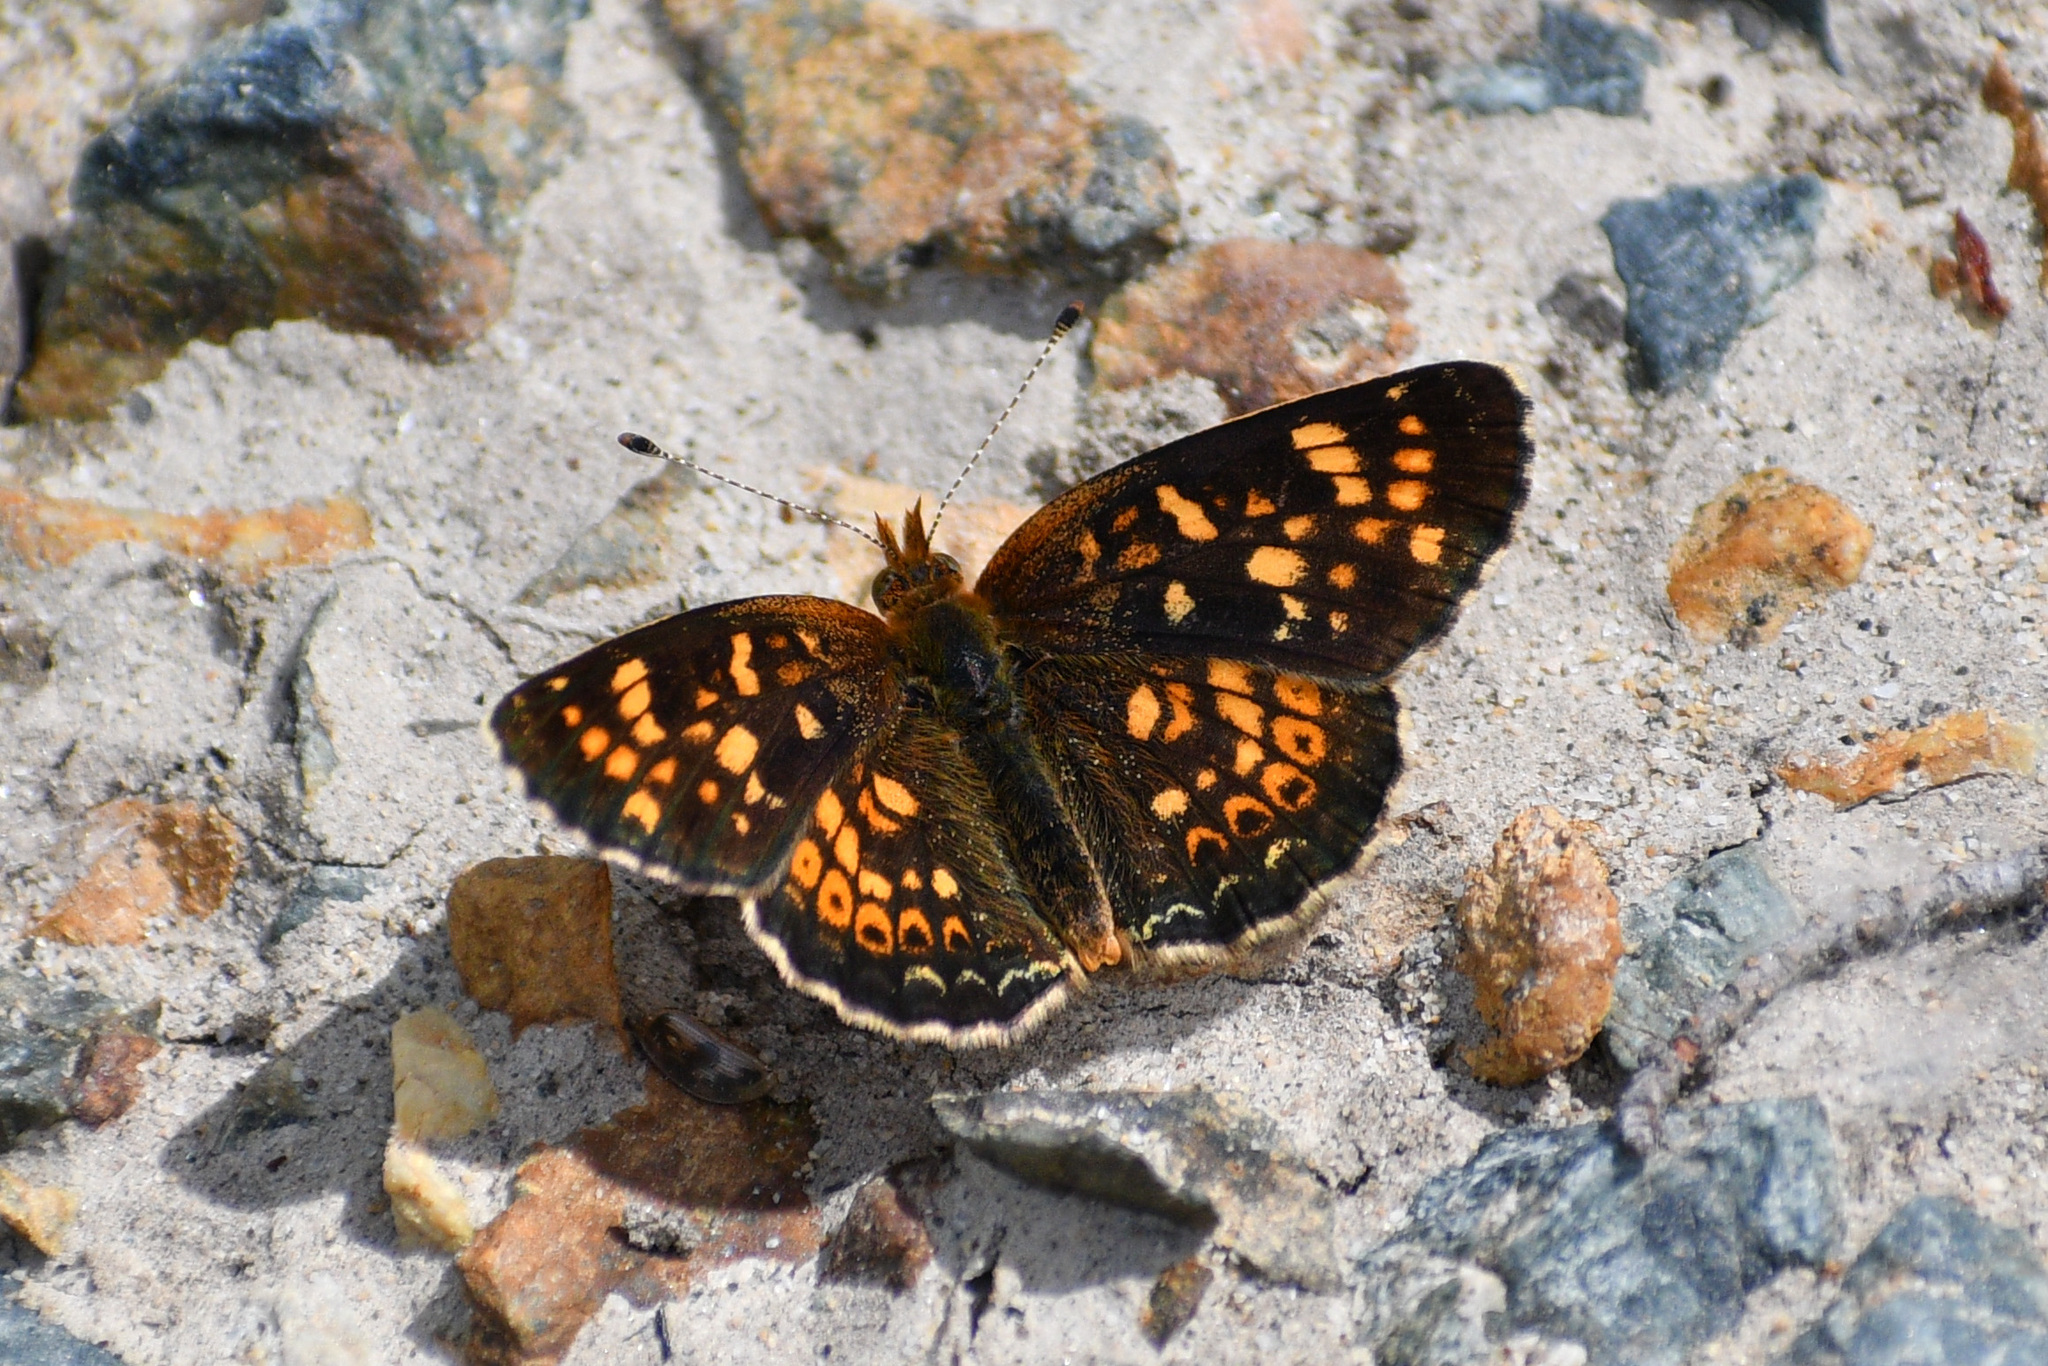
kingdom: Animalia
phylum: Arthropoda
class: Insecta
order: Lepidoptera
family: Nymphalidae
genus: Phyciodes
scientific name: Phyciodes tharos
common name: Pearl crescent
